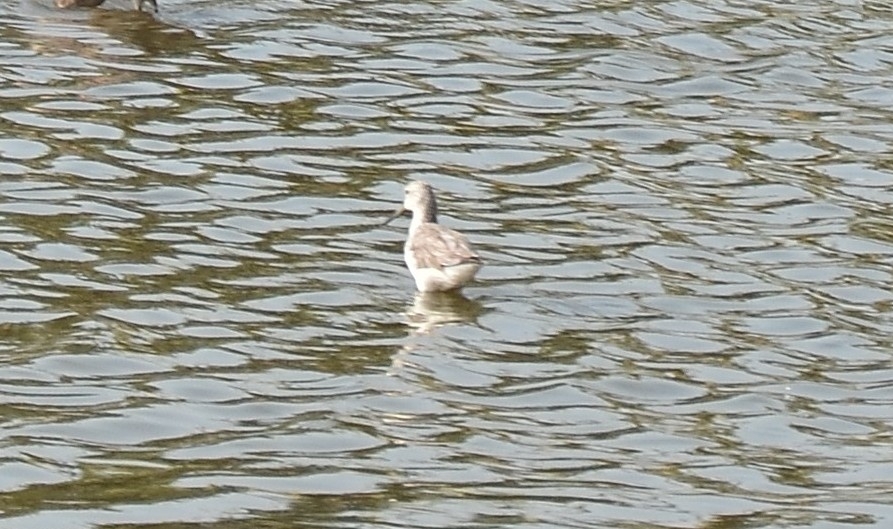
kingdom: Animalia
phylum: Chordata
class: Aves
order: Charadriiformes
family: Scolopacidae
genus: Tringa
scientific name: Tringa stagnatilis
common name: Marsh sandpiper
